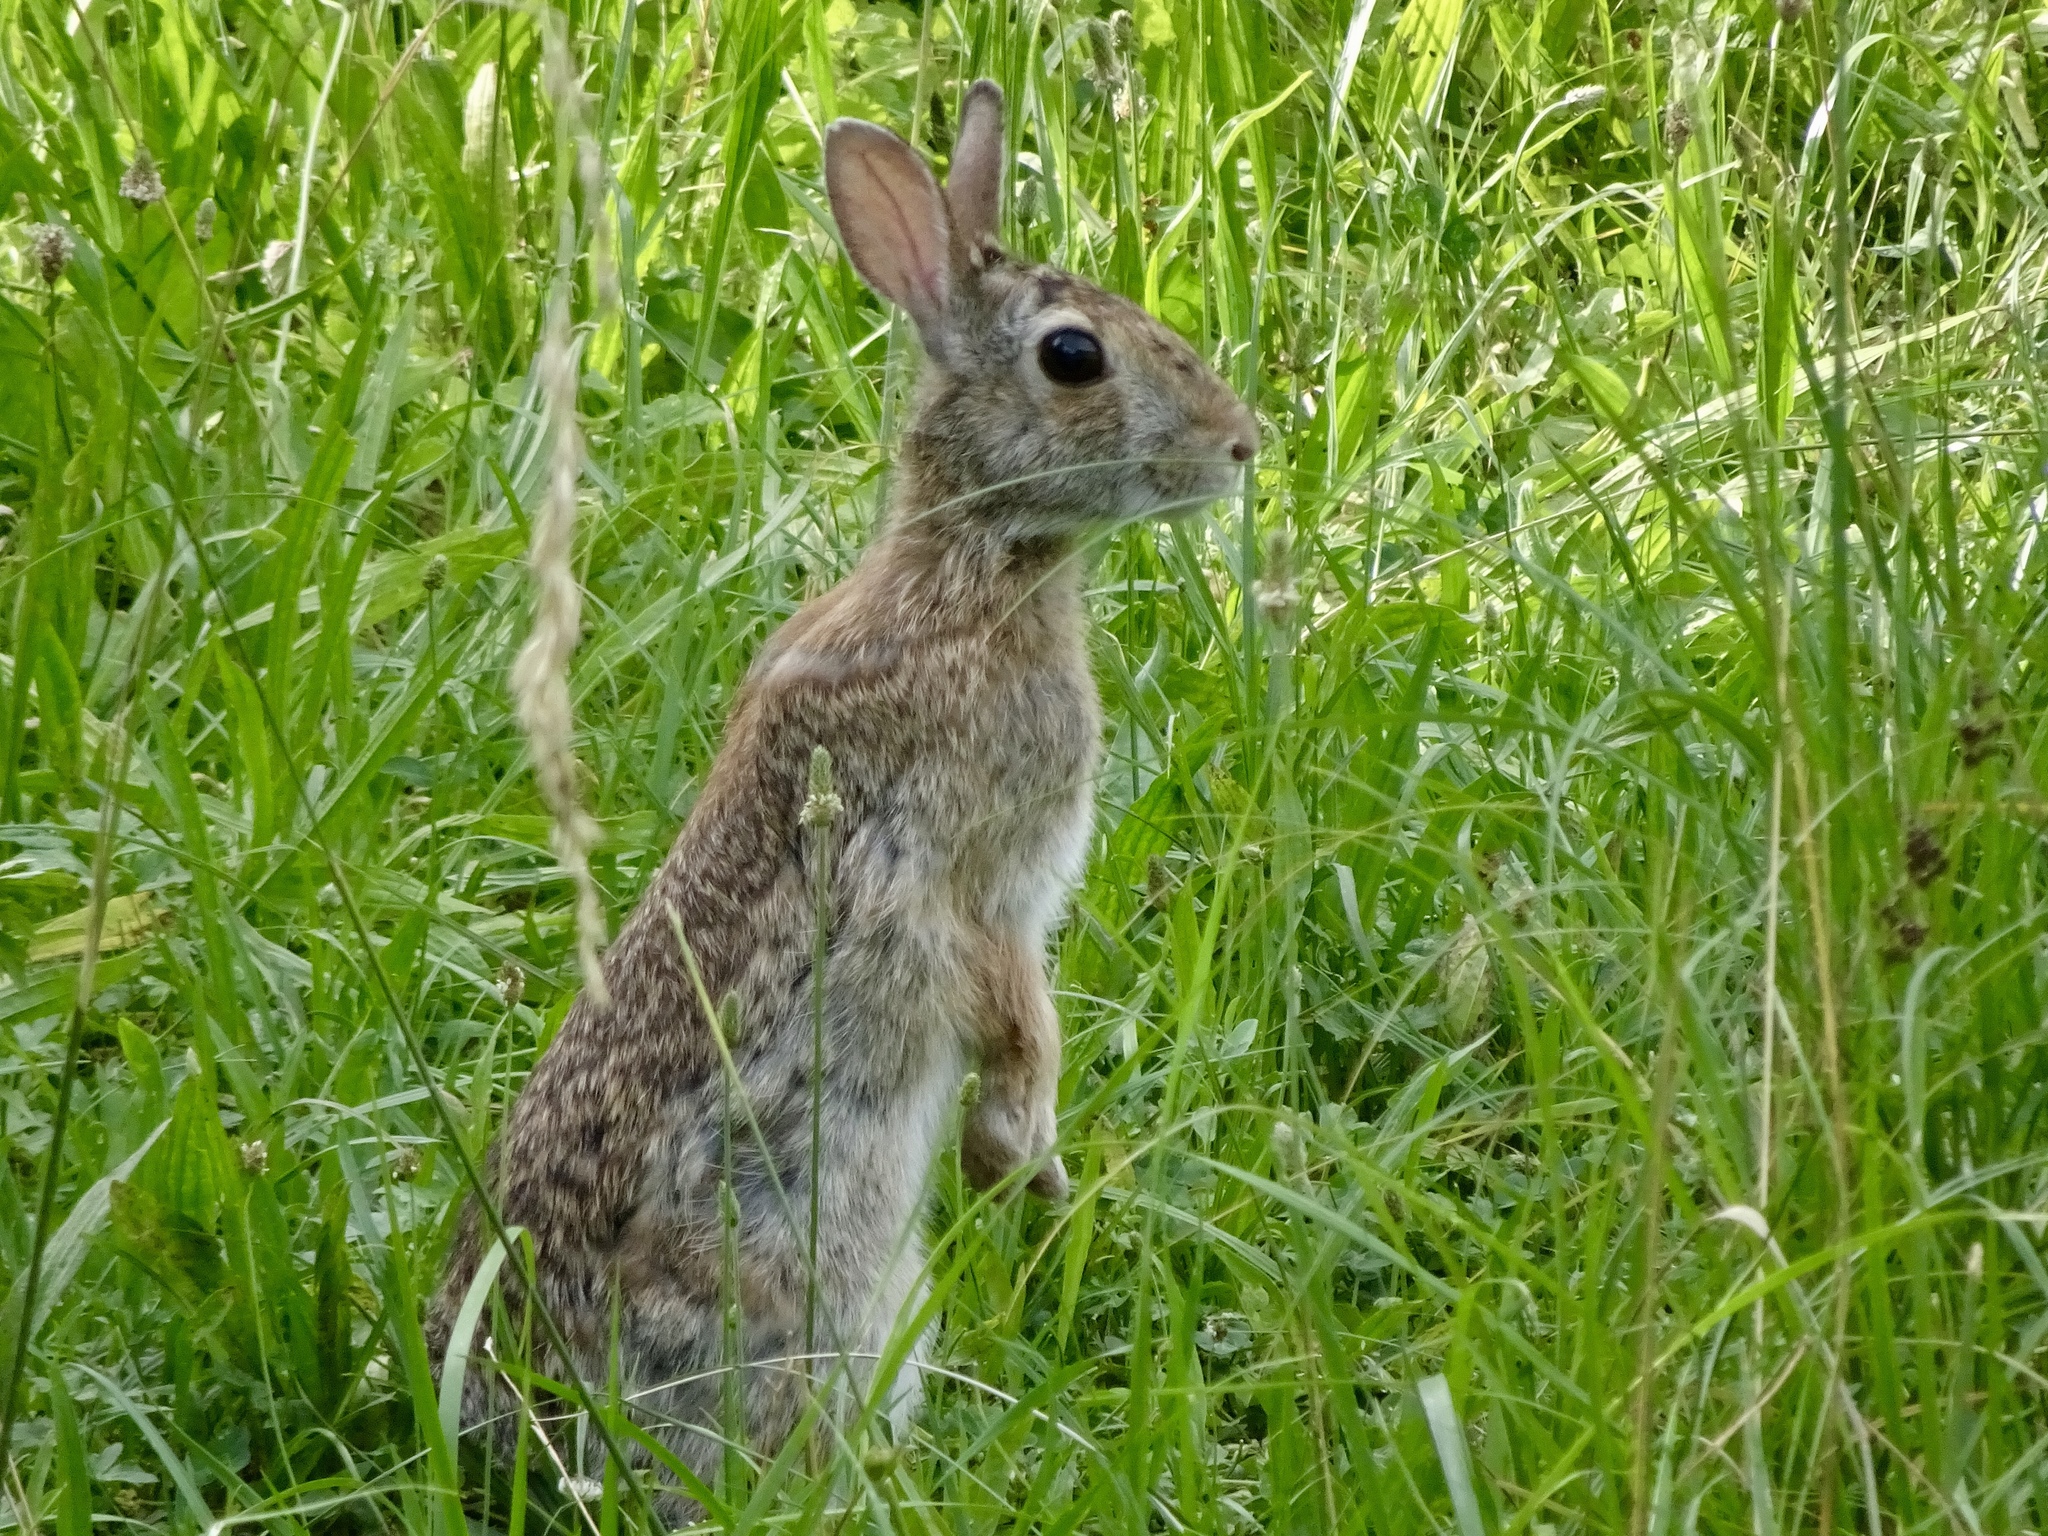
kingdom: Animalia
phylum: Chordata
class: Mammalia
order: Lagomorpha
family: Leporidae
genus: Sylvilagus
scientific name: Sylvilagus floridanus
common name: Eastern cottontail
